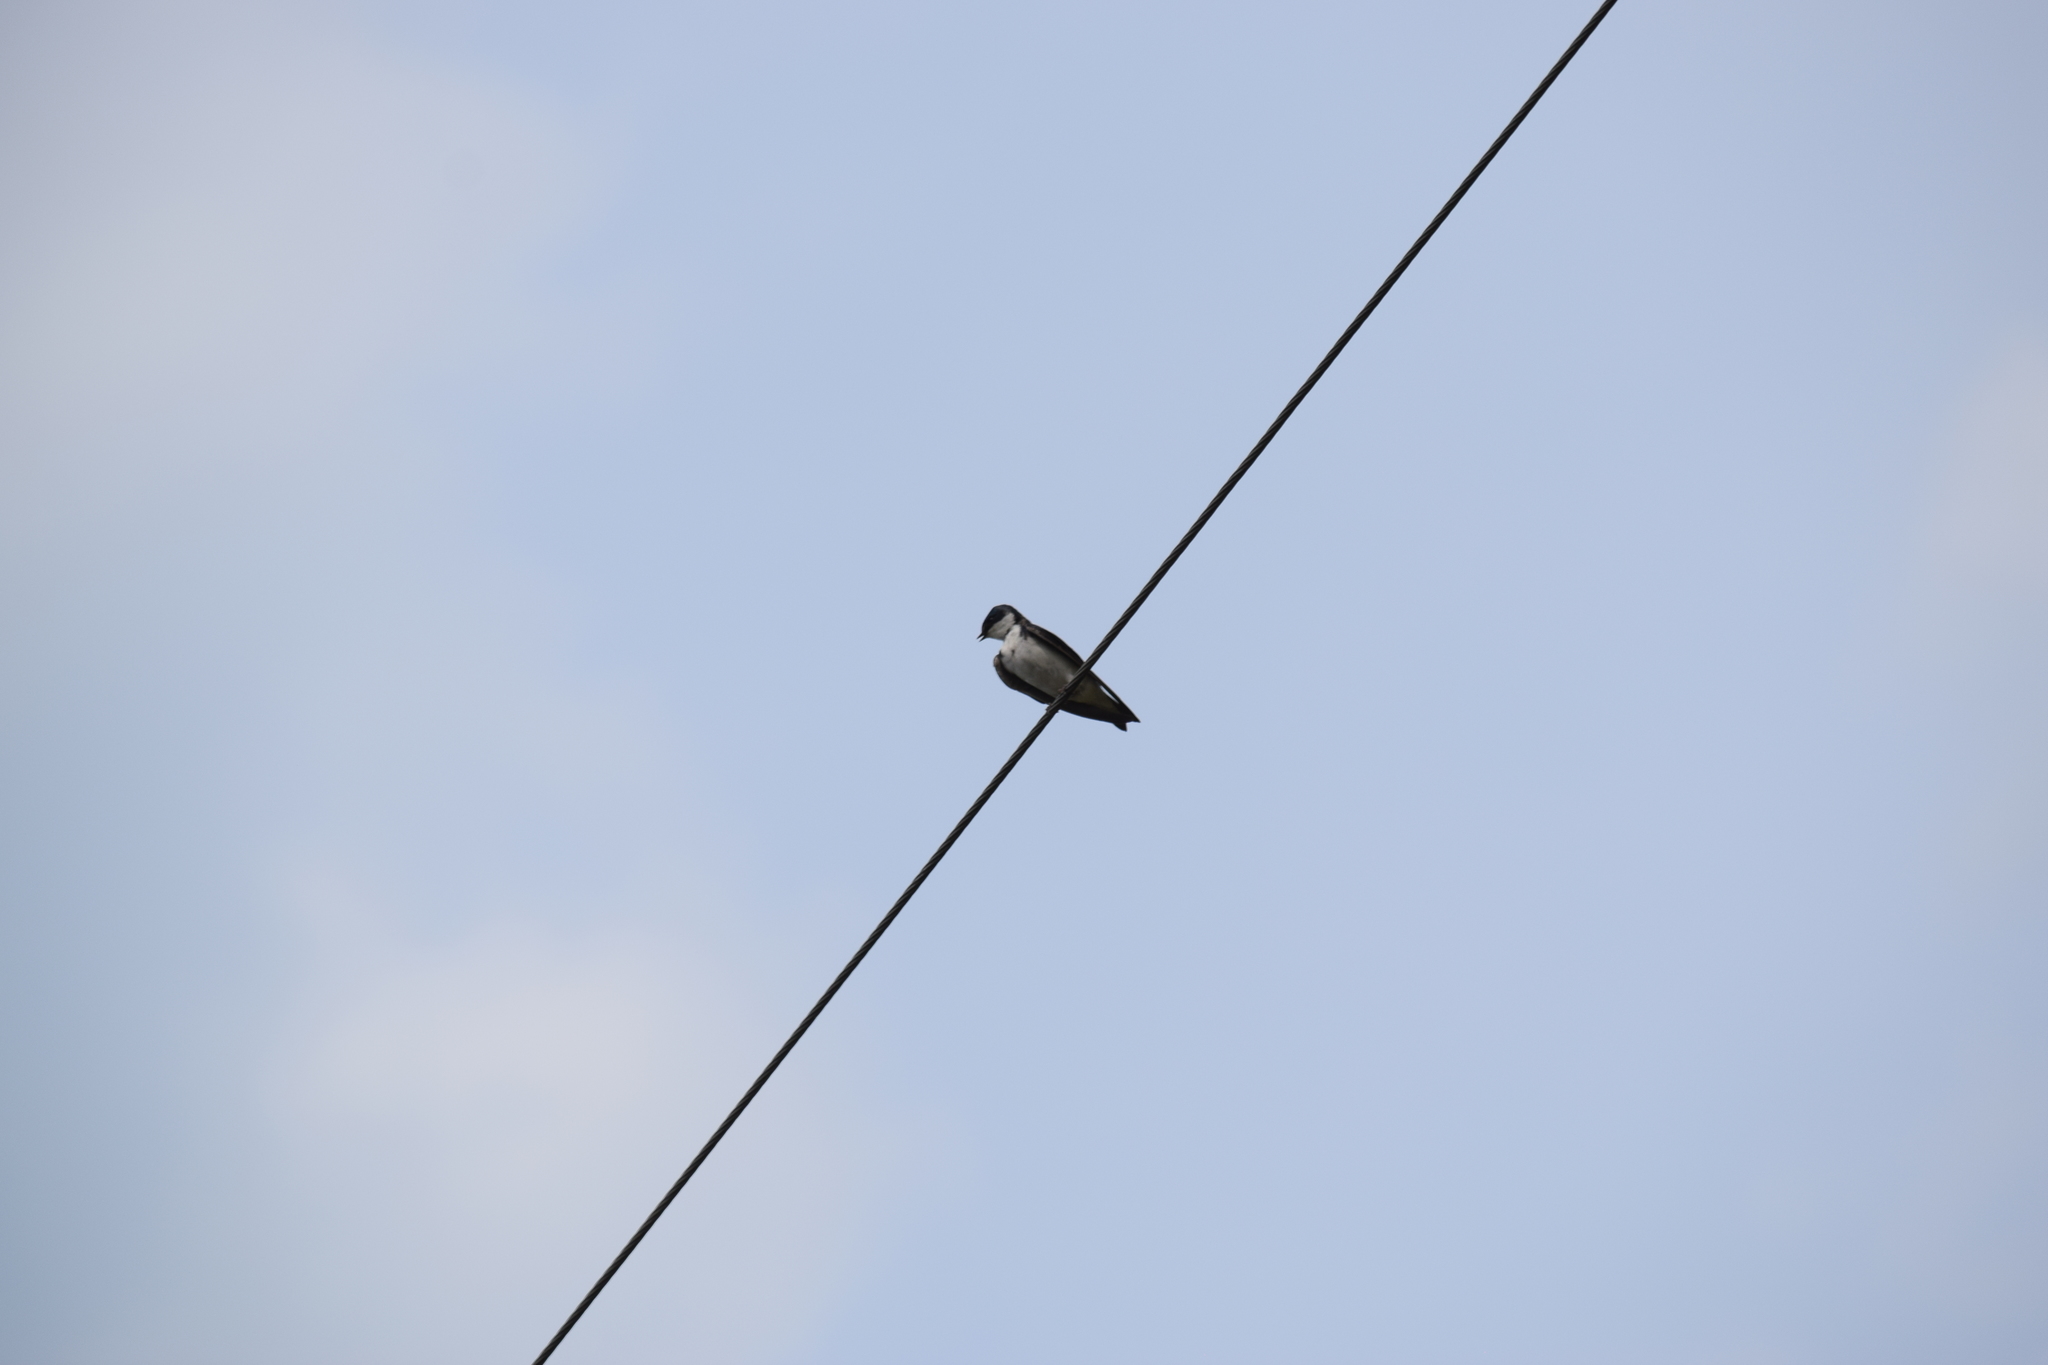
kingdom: Animalia
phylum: Chordata
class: Aves
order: Passeriformes
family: Hirundinidae
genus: Tachycineta
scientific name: Tachycineta bicolor
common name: Tree swallow
